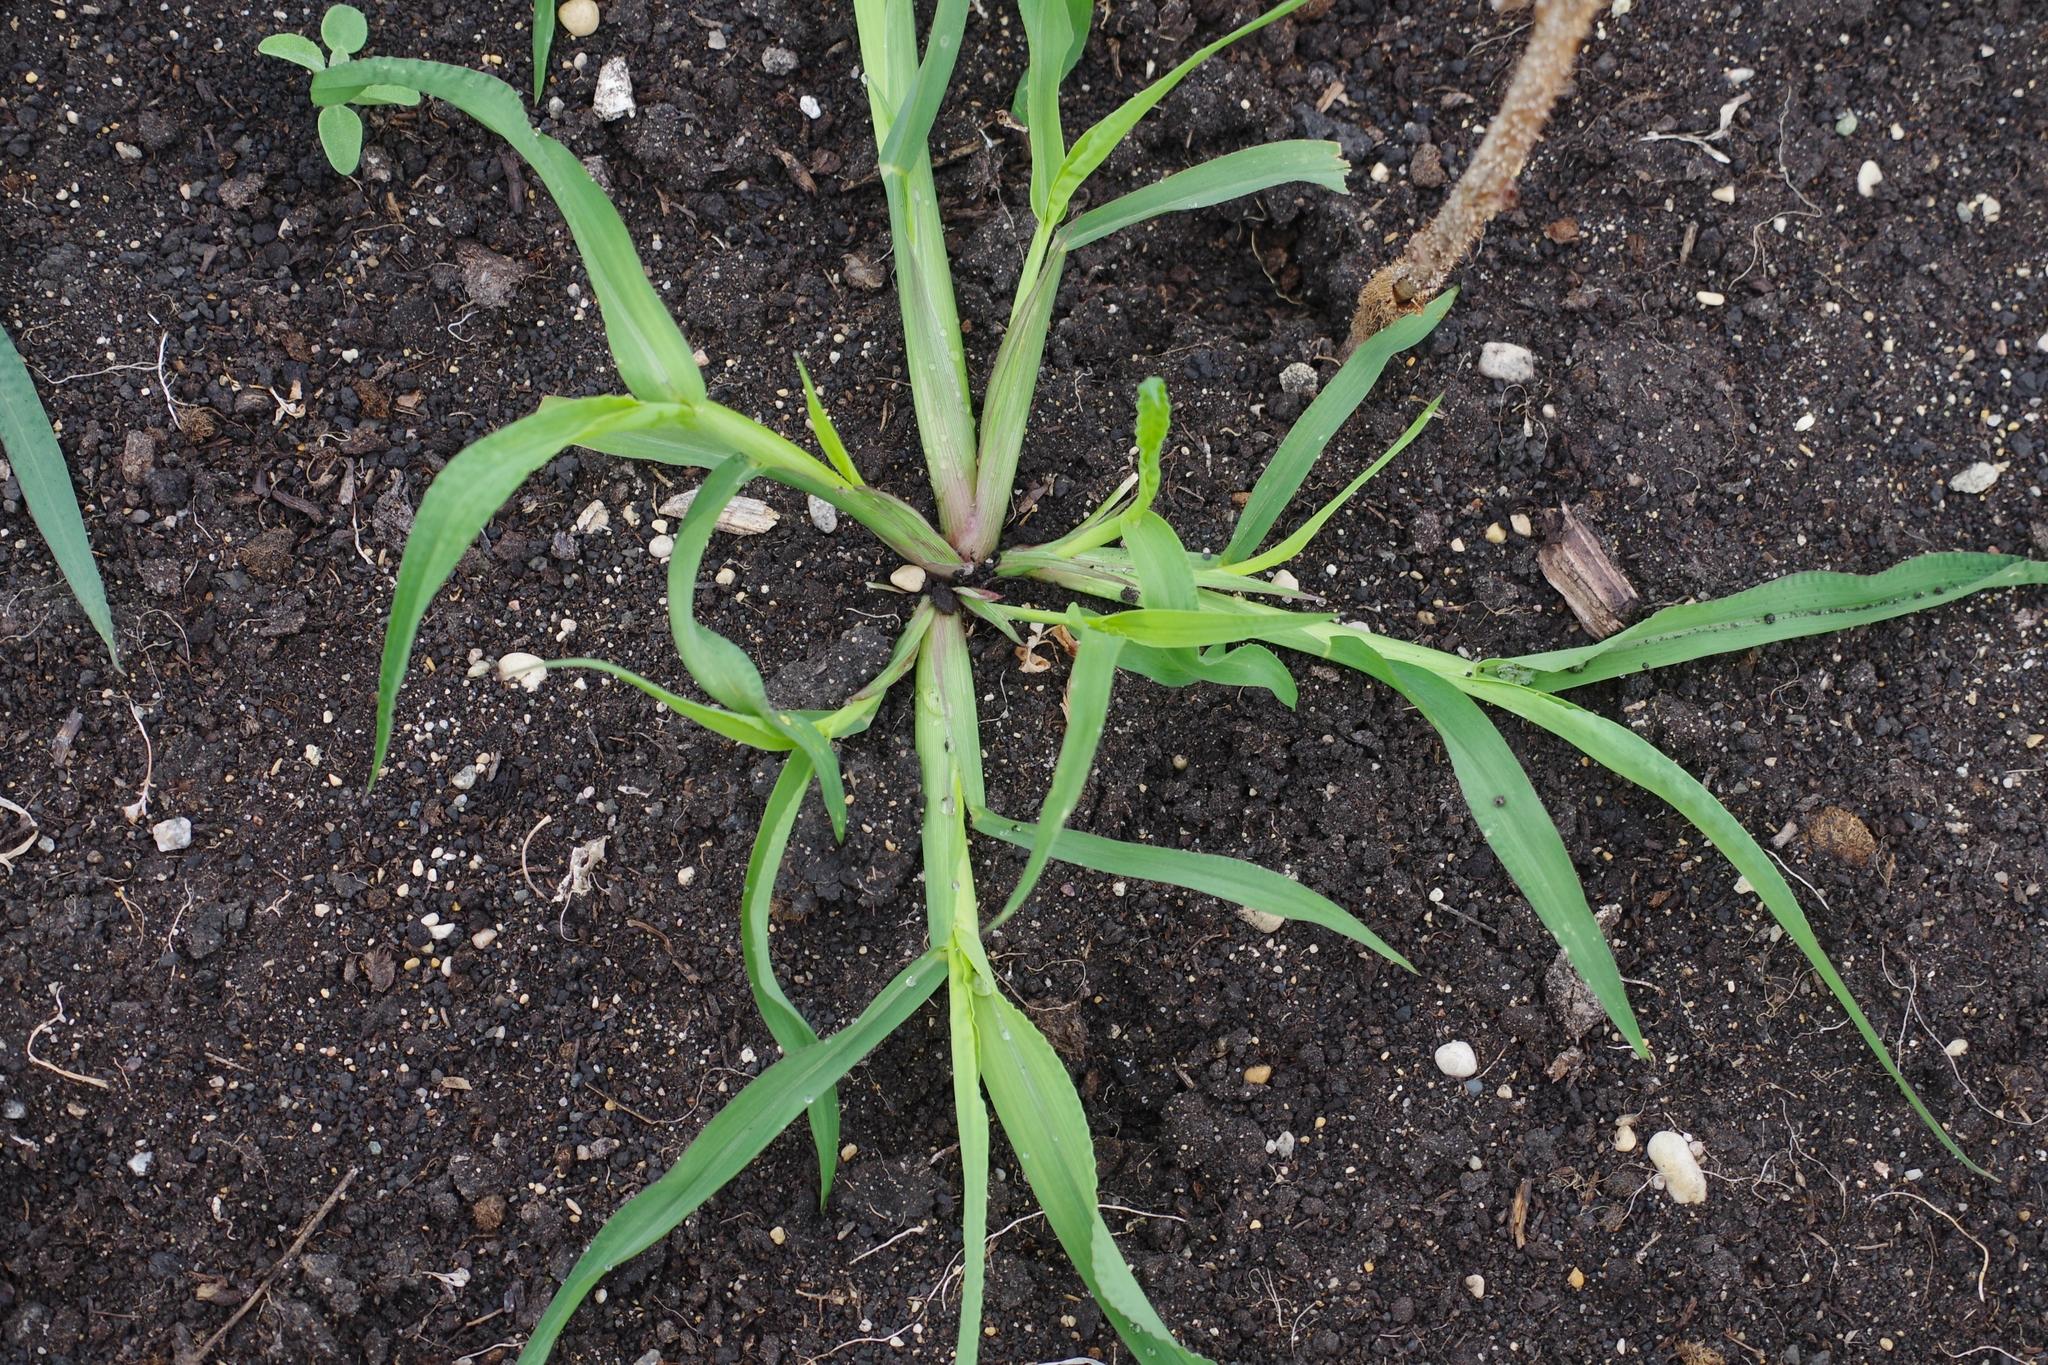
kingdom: Plantae
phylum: Tracheophyta
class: Liliopsida
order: Poales
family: Poaceae
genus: Echinochloa
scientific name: Echinochloa crus-galli
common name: Cockspur
